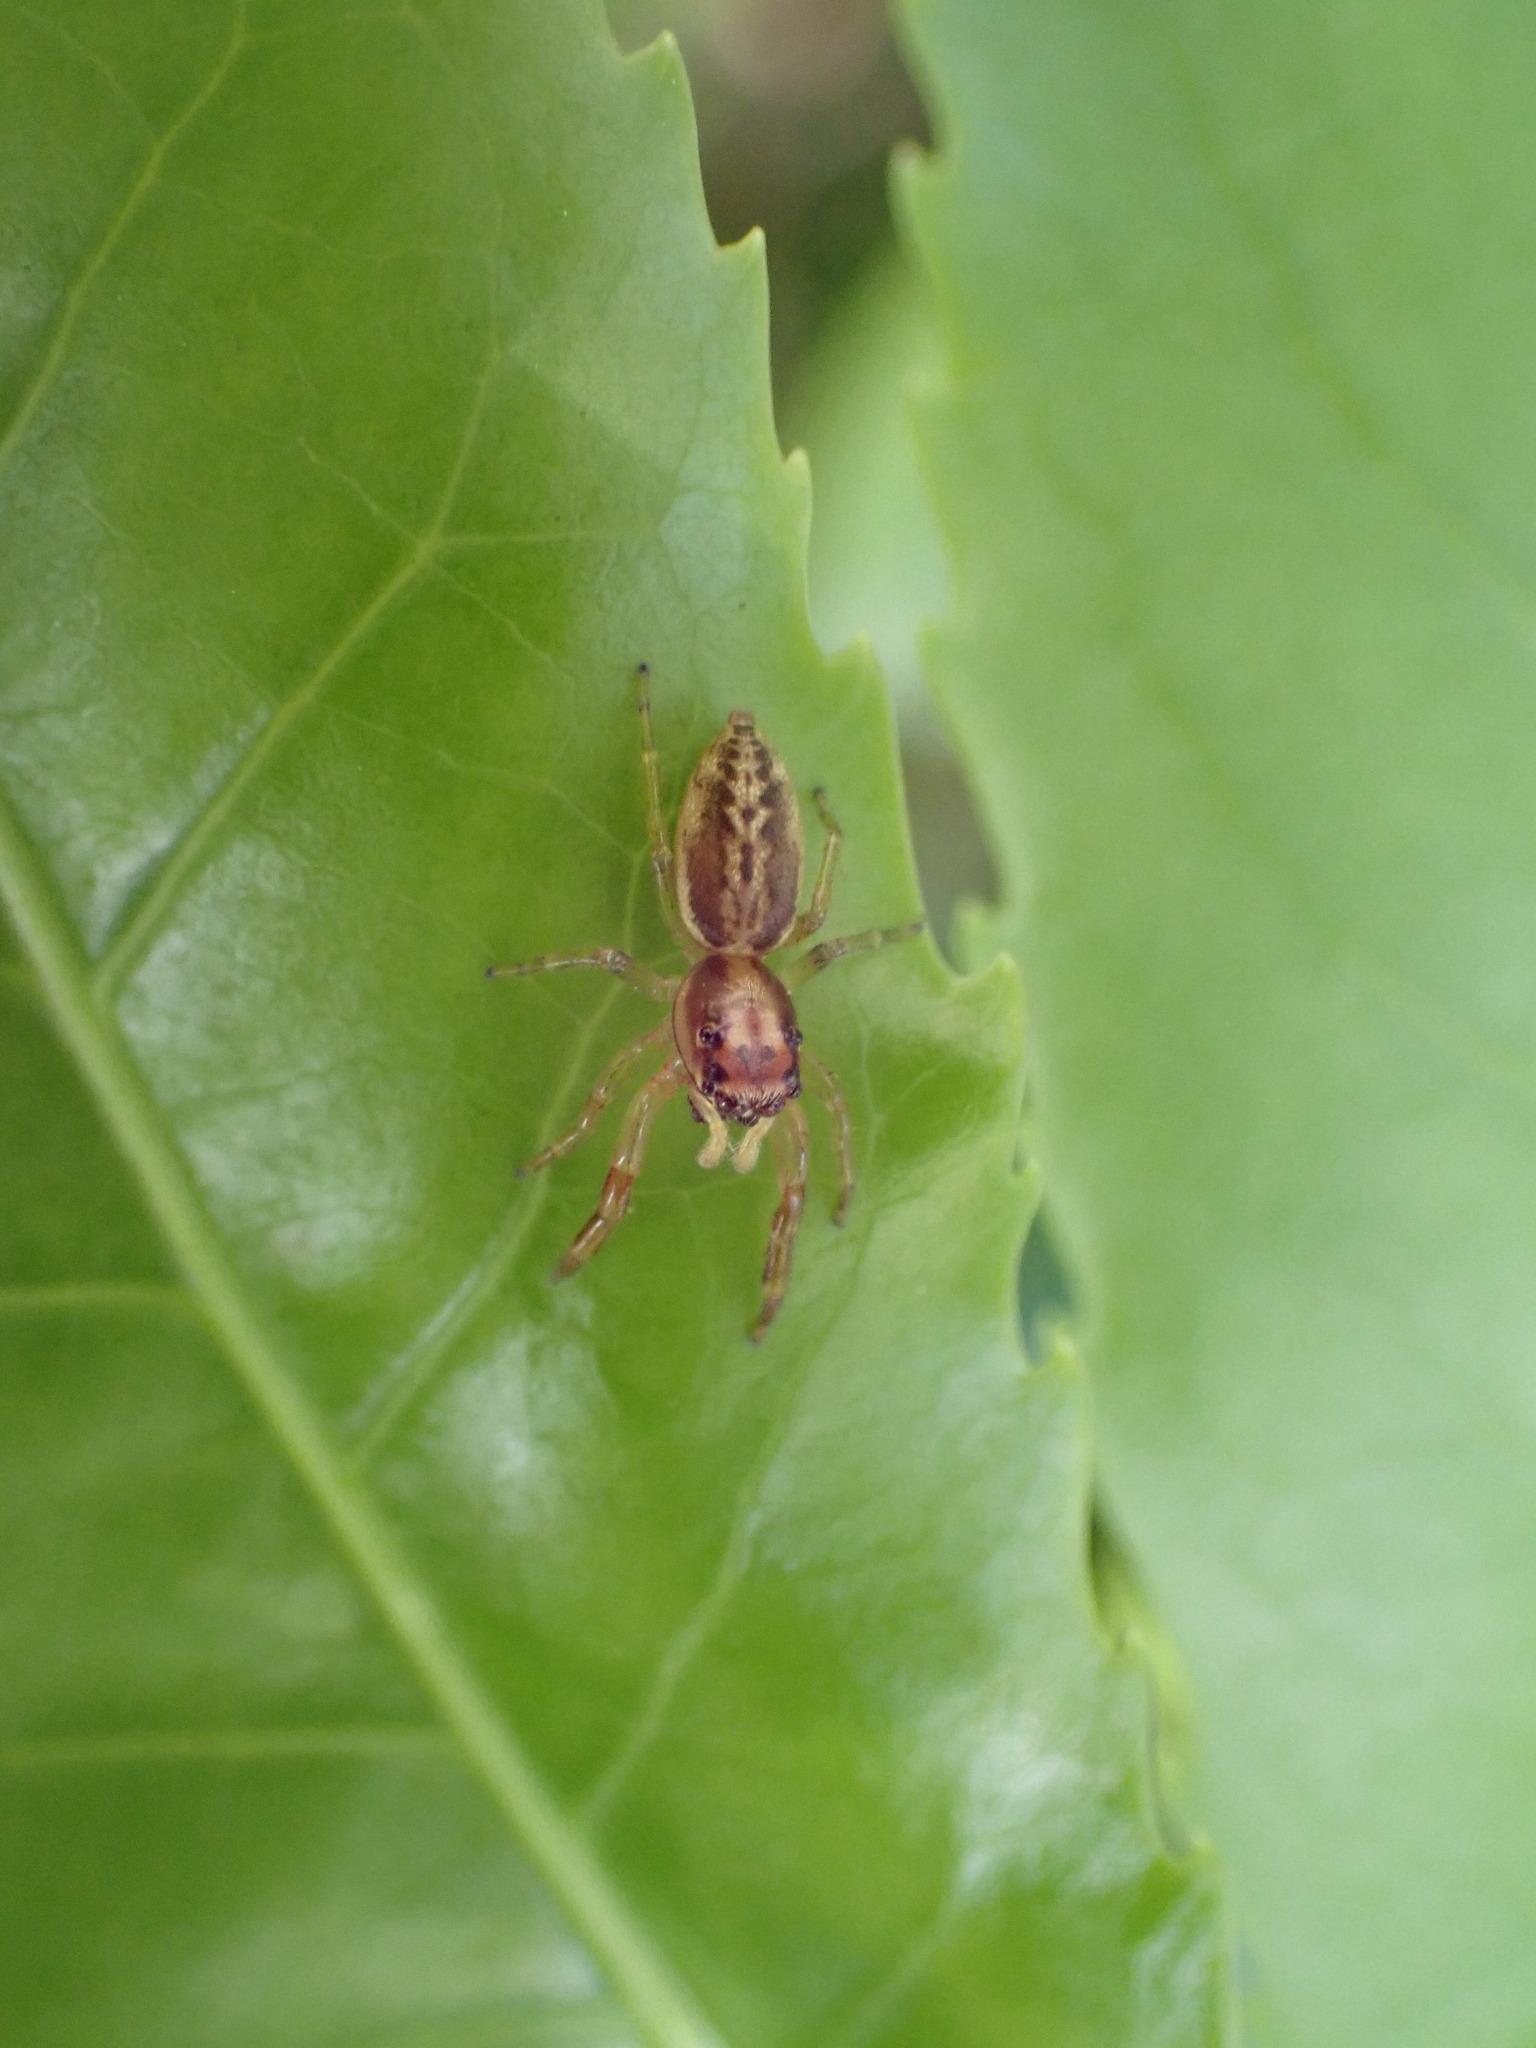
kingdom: Animalia
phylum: Arthropoda
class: Arachnida
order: Araneae
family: Salticidae
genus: Trite
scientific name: Trite mustilina
